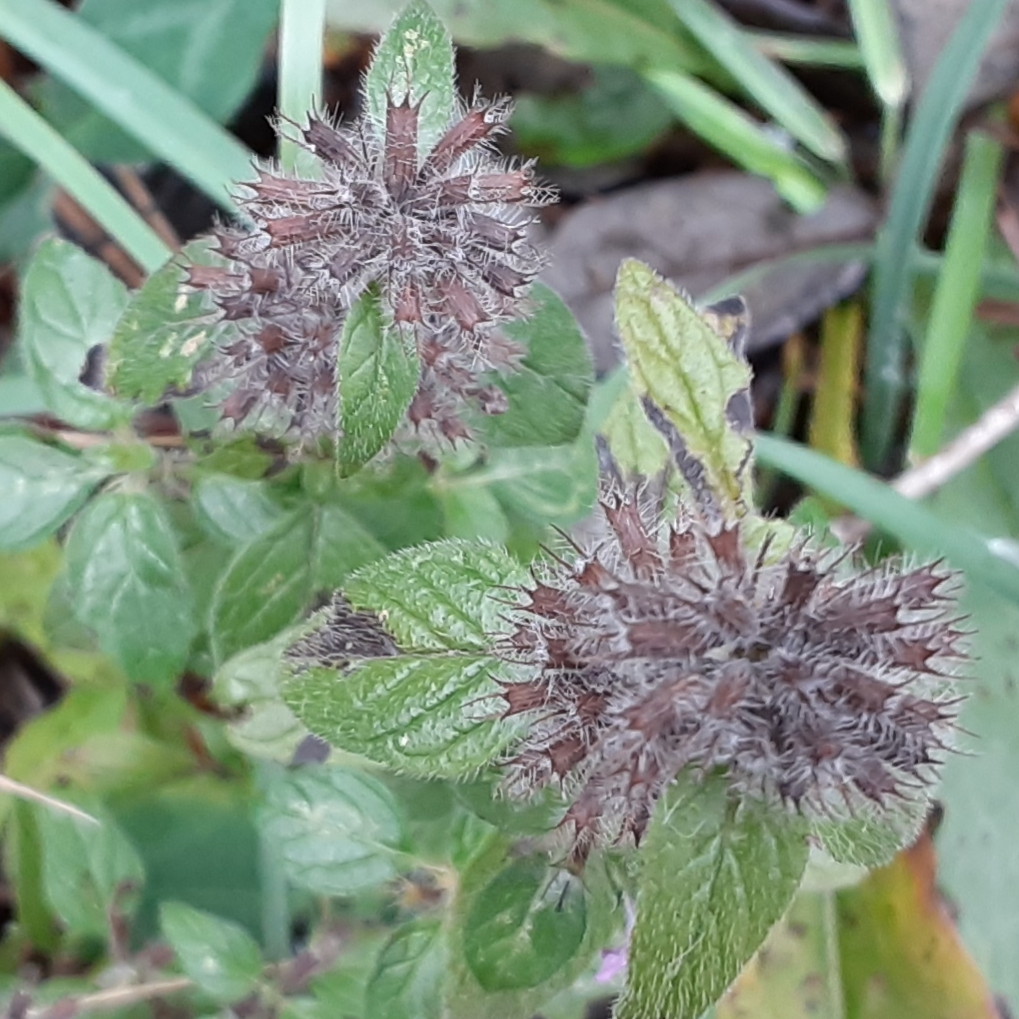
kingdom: Plantae
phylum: Tracheophyta
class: Magnoliopsida
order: Lamiales
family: Lamiaceae
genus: Clinopodium
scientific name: Clinopodium vulgare
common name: Wild basil
